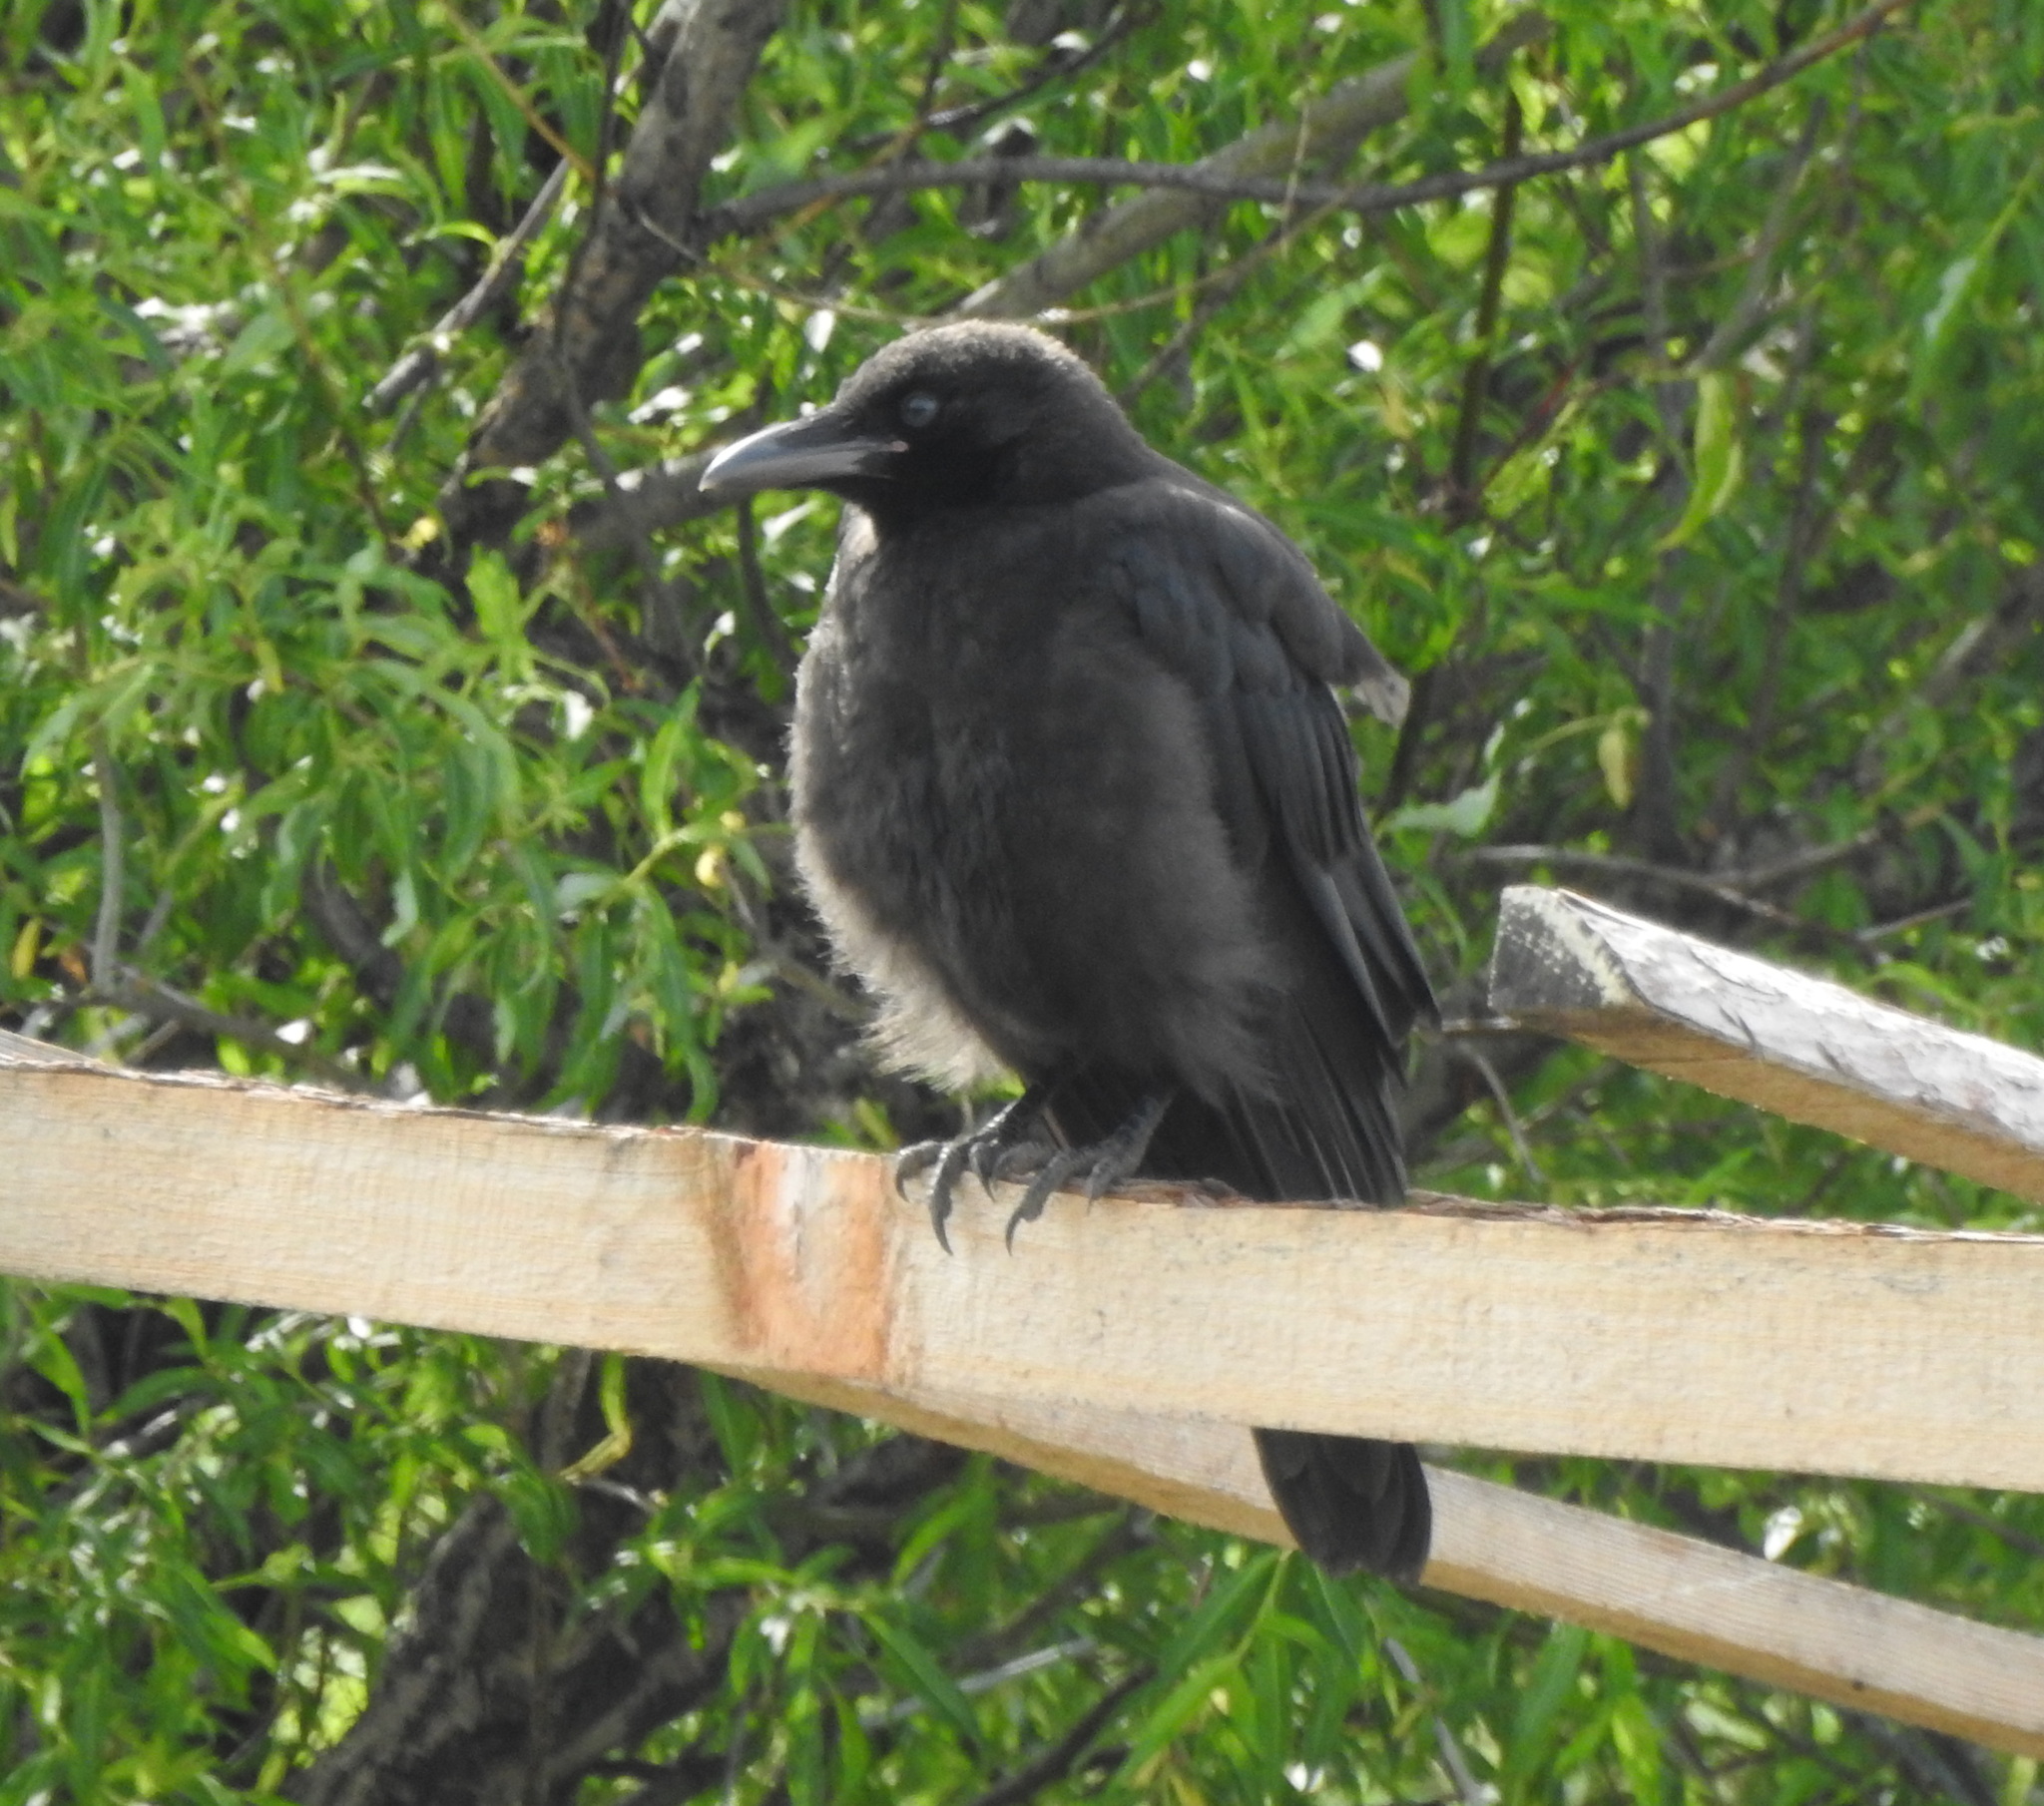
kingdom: Animalia
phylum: Chordata
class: Aves
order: Passeriformes
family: Corvidae
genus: Corvus
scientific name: Corvus corone
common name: Carrion crow
